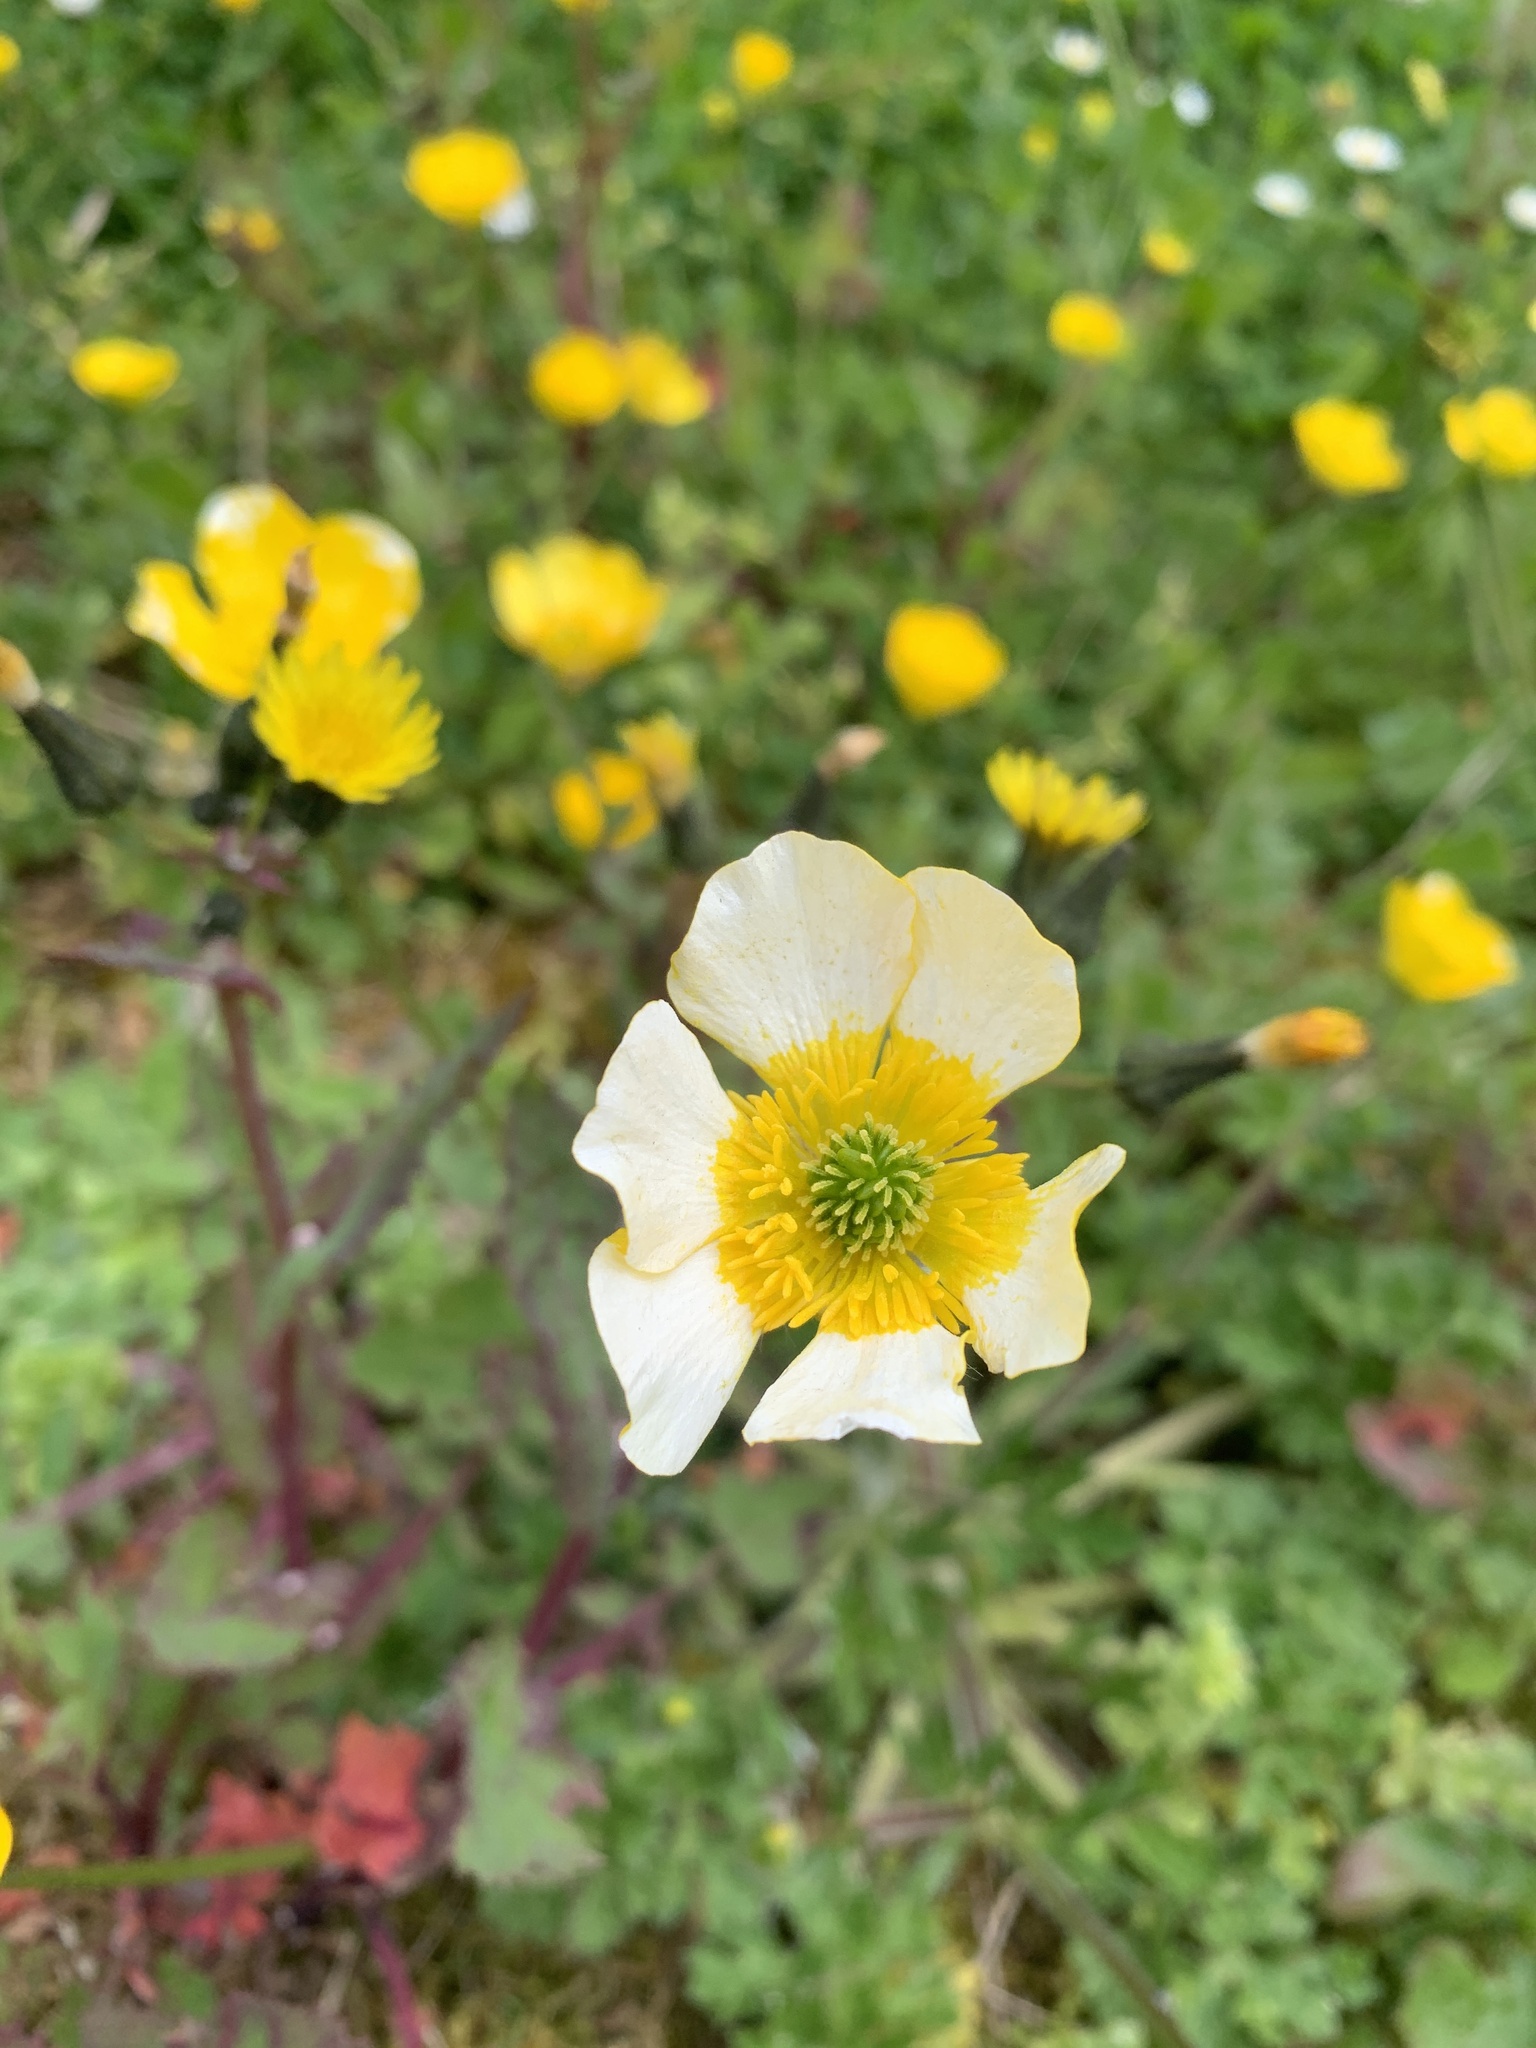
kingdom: Plantae
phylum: Tracheophyta
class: Magnoliopsida
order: Ranunculales
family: Ranunculaceae
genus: Ranunculus
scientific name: Ranunculus acris
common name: Meadow buttercup
